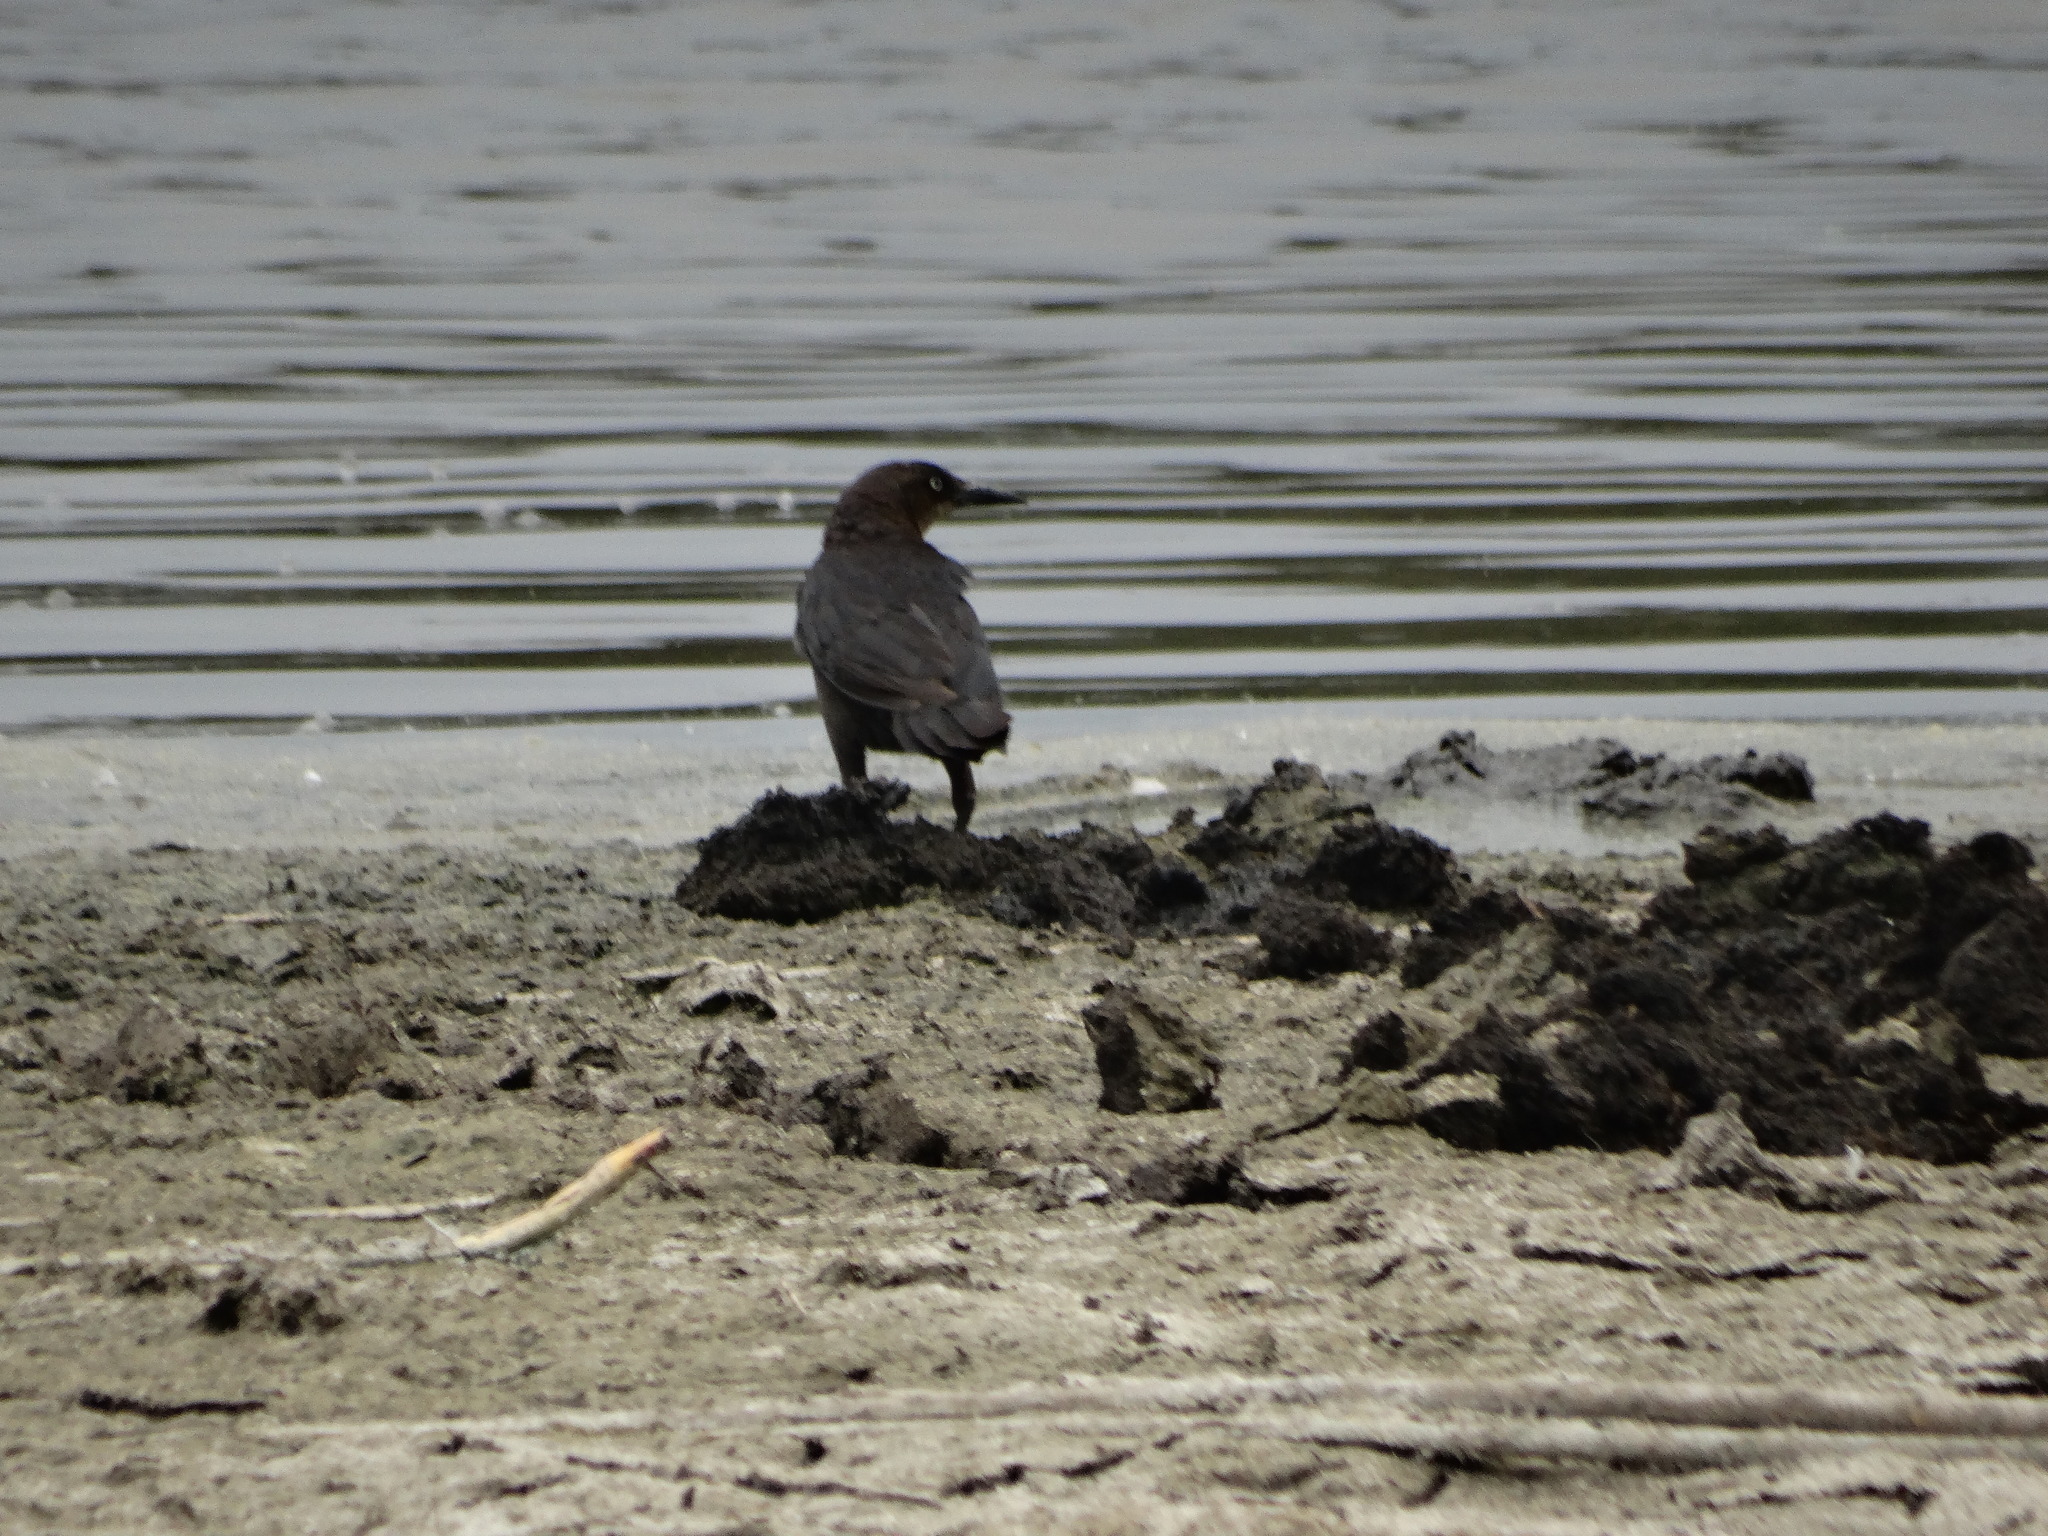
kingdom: Animalia
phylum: Chordata
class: Aves
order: Passeriformes
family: Icteridae
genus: Quiscalus
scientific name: Quiscalus mexicanus
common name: Great-tailed grackle
